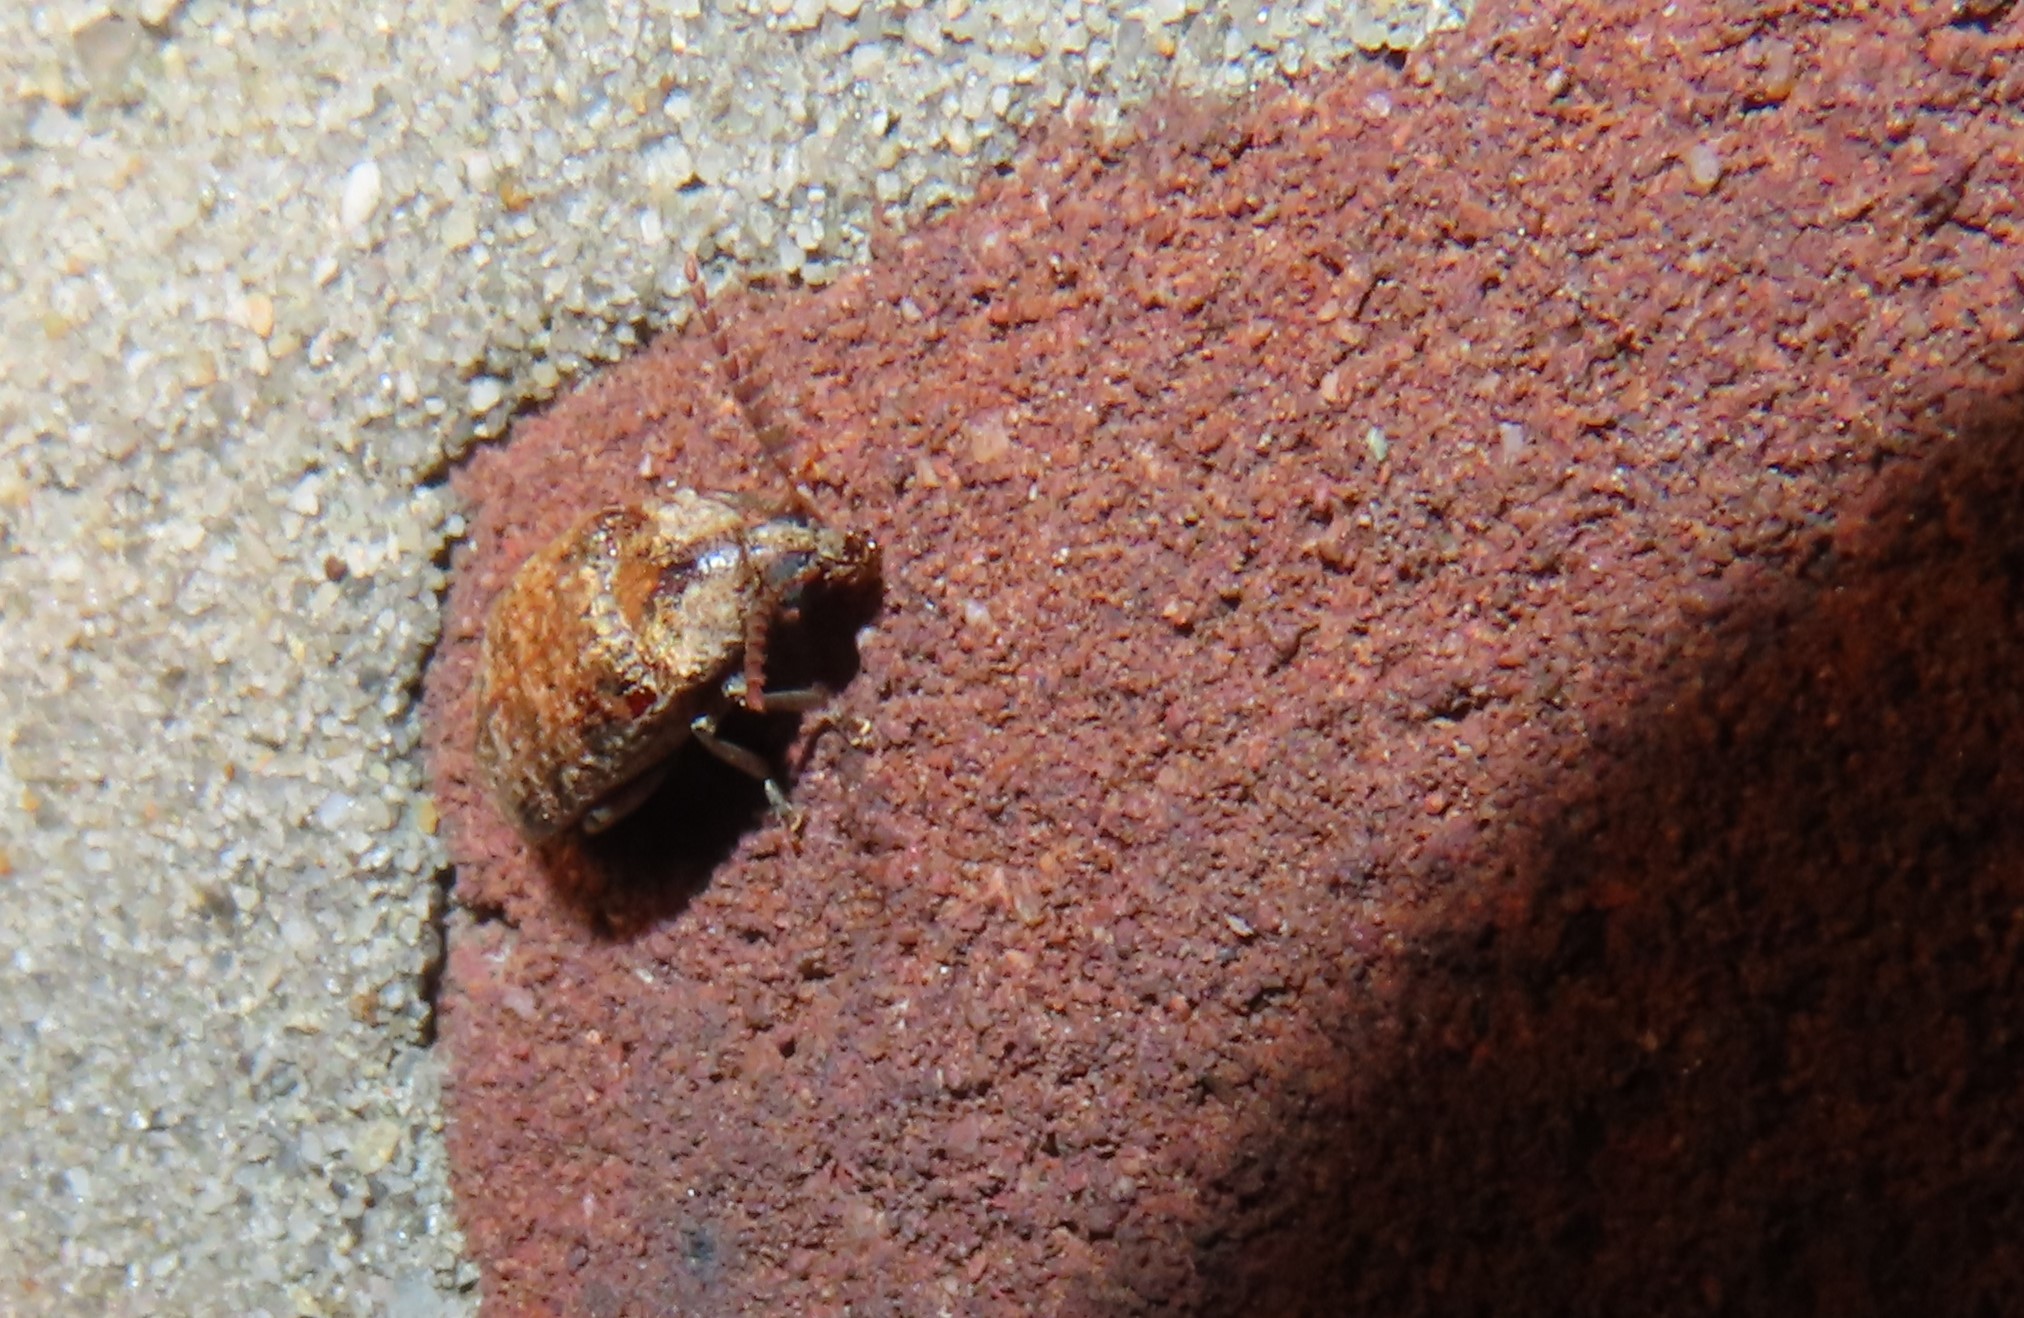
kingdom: Animalia
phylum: Arthropoda
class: Insecta
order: Coleoptera
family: Chrysomelidae
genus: Amblycerus
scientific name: Amblycerus robiniae
